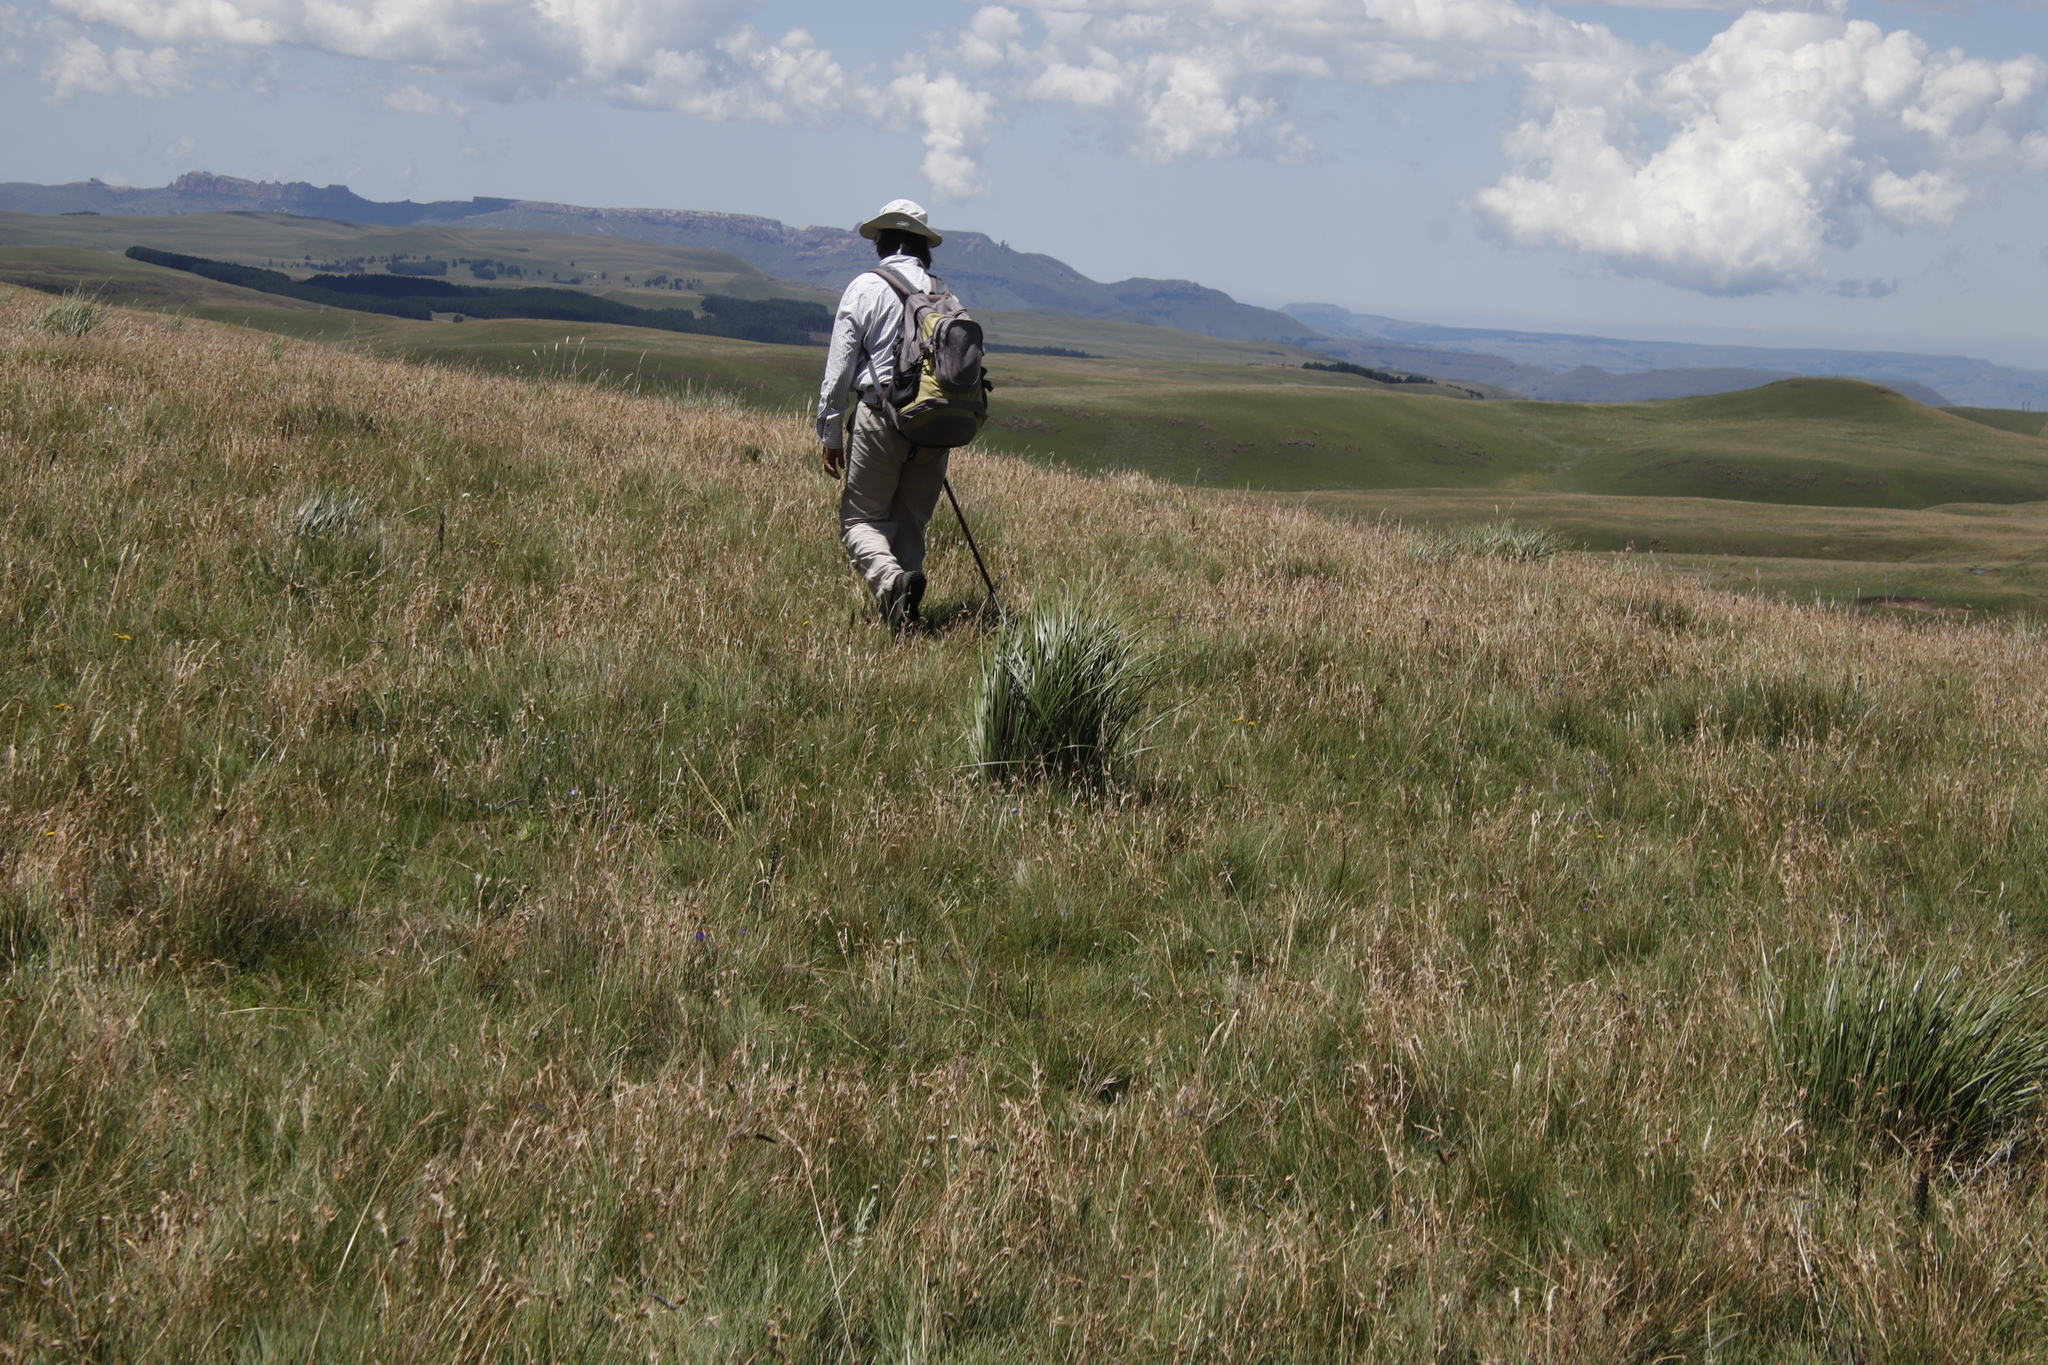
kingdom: Plantae
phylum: Tracheophyta
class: Liliopsida
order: Poales
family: Poaceae
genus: Harpochloa
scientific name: Harpochloa falx
